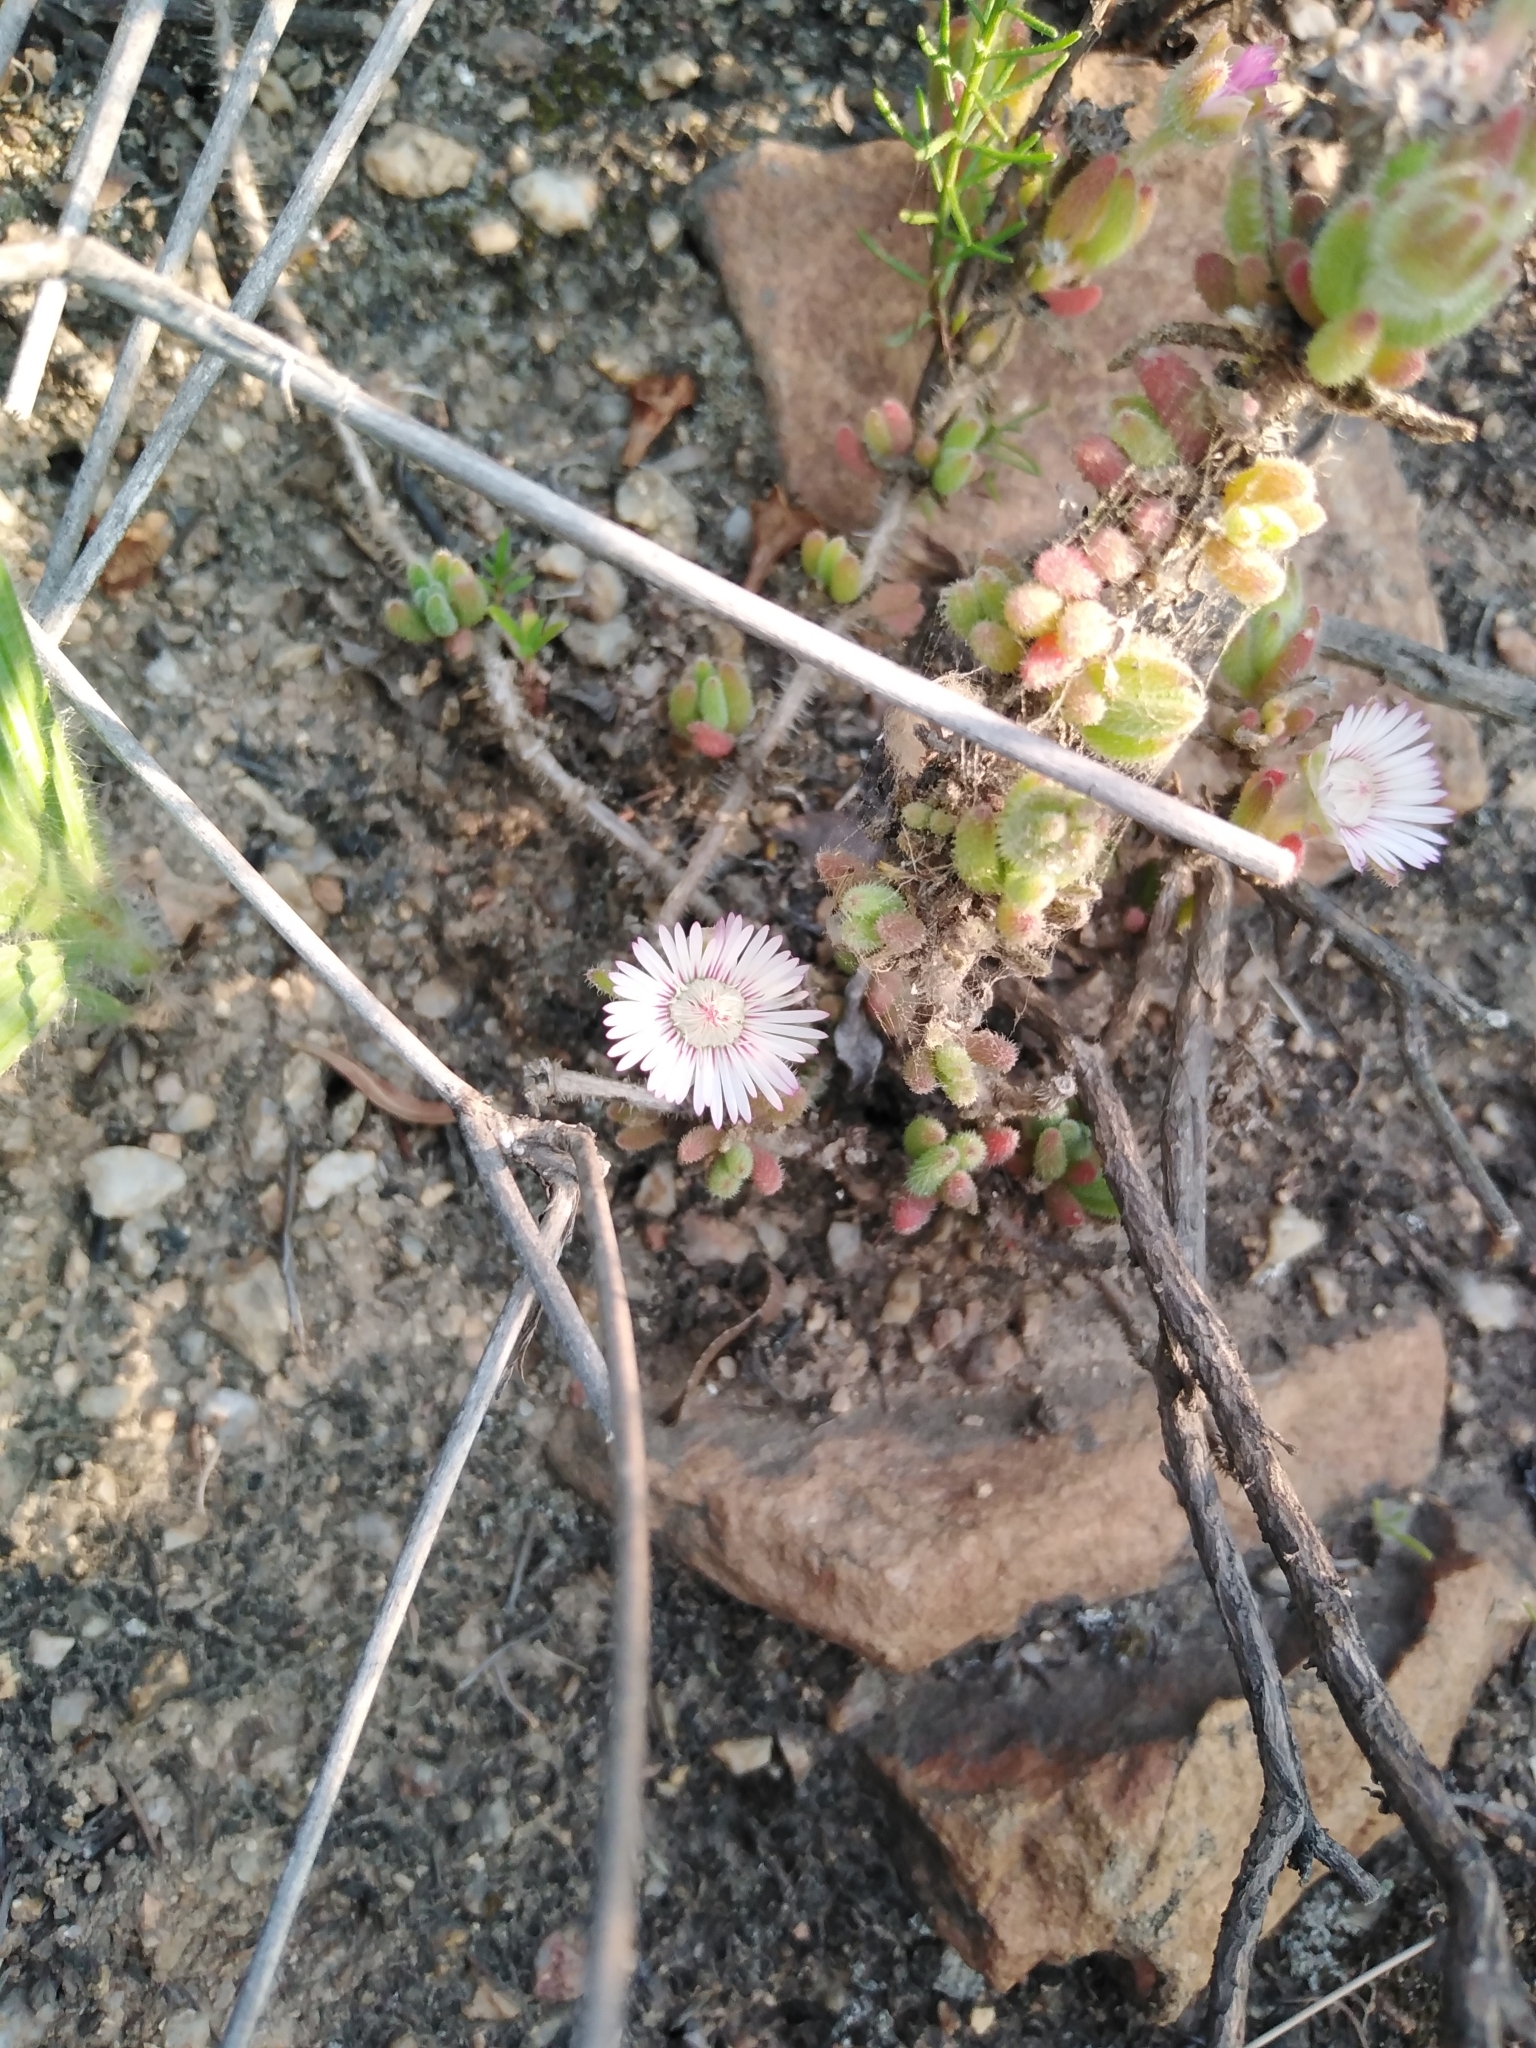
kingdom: Plantae
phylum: Tracheophyta
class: Magnoliopsida
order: Caryophyllales
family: Aizoaceae
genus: Drosanthemum
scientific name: Drosanthemum hispifolium
